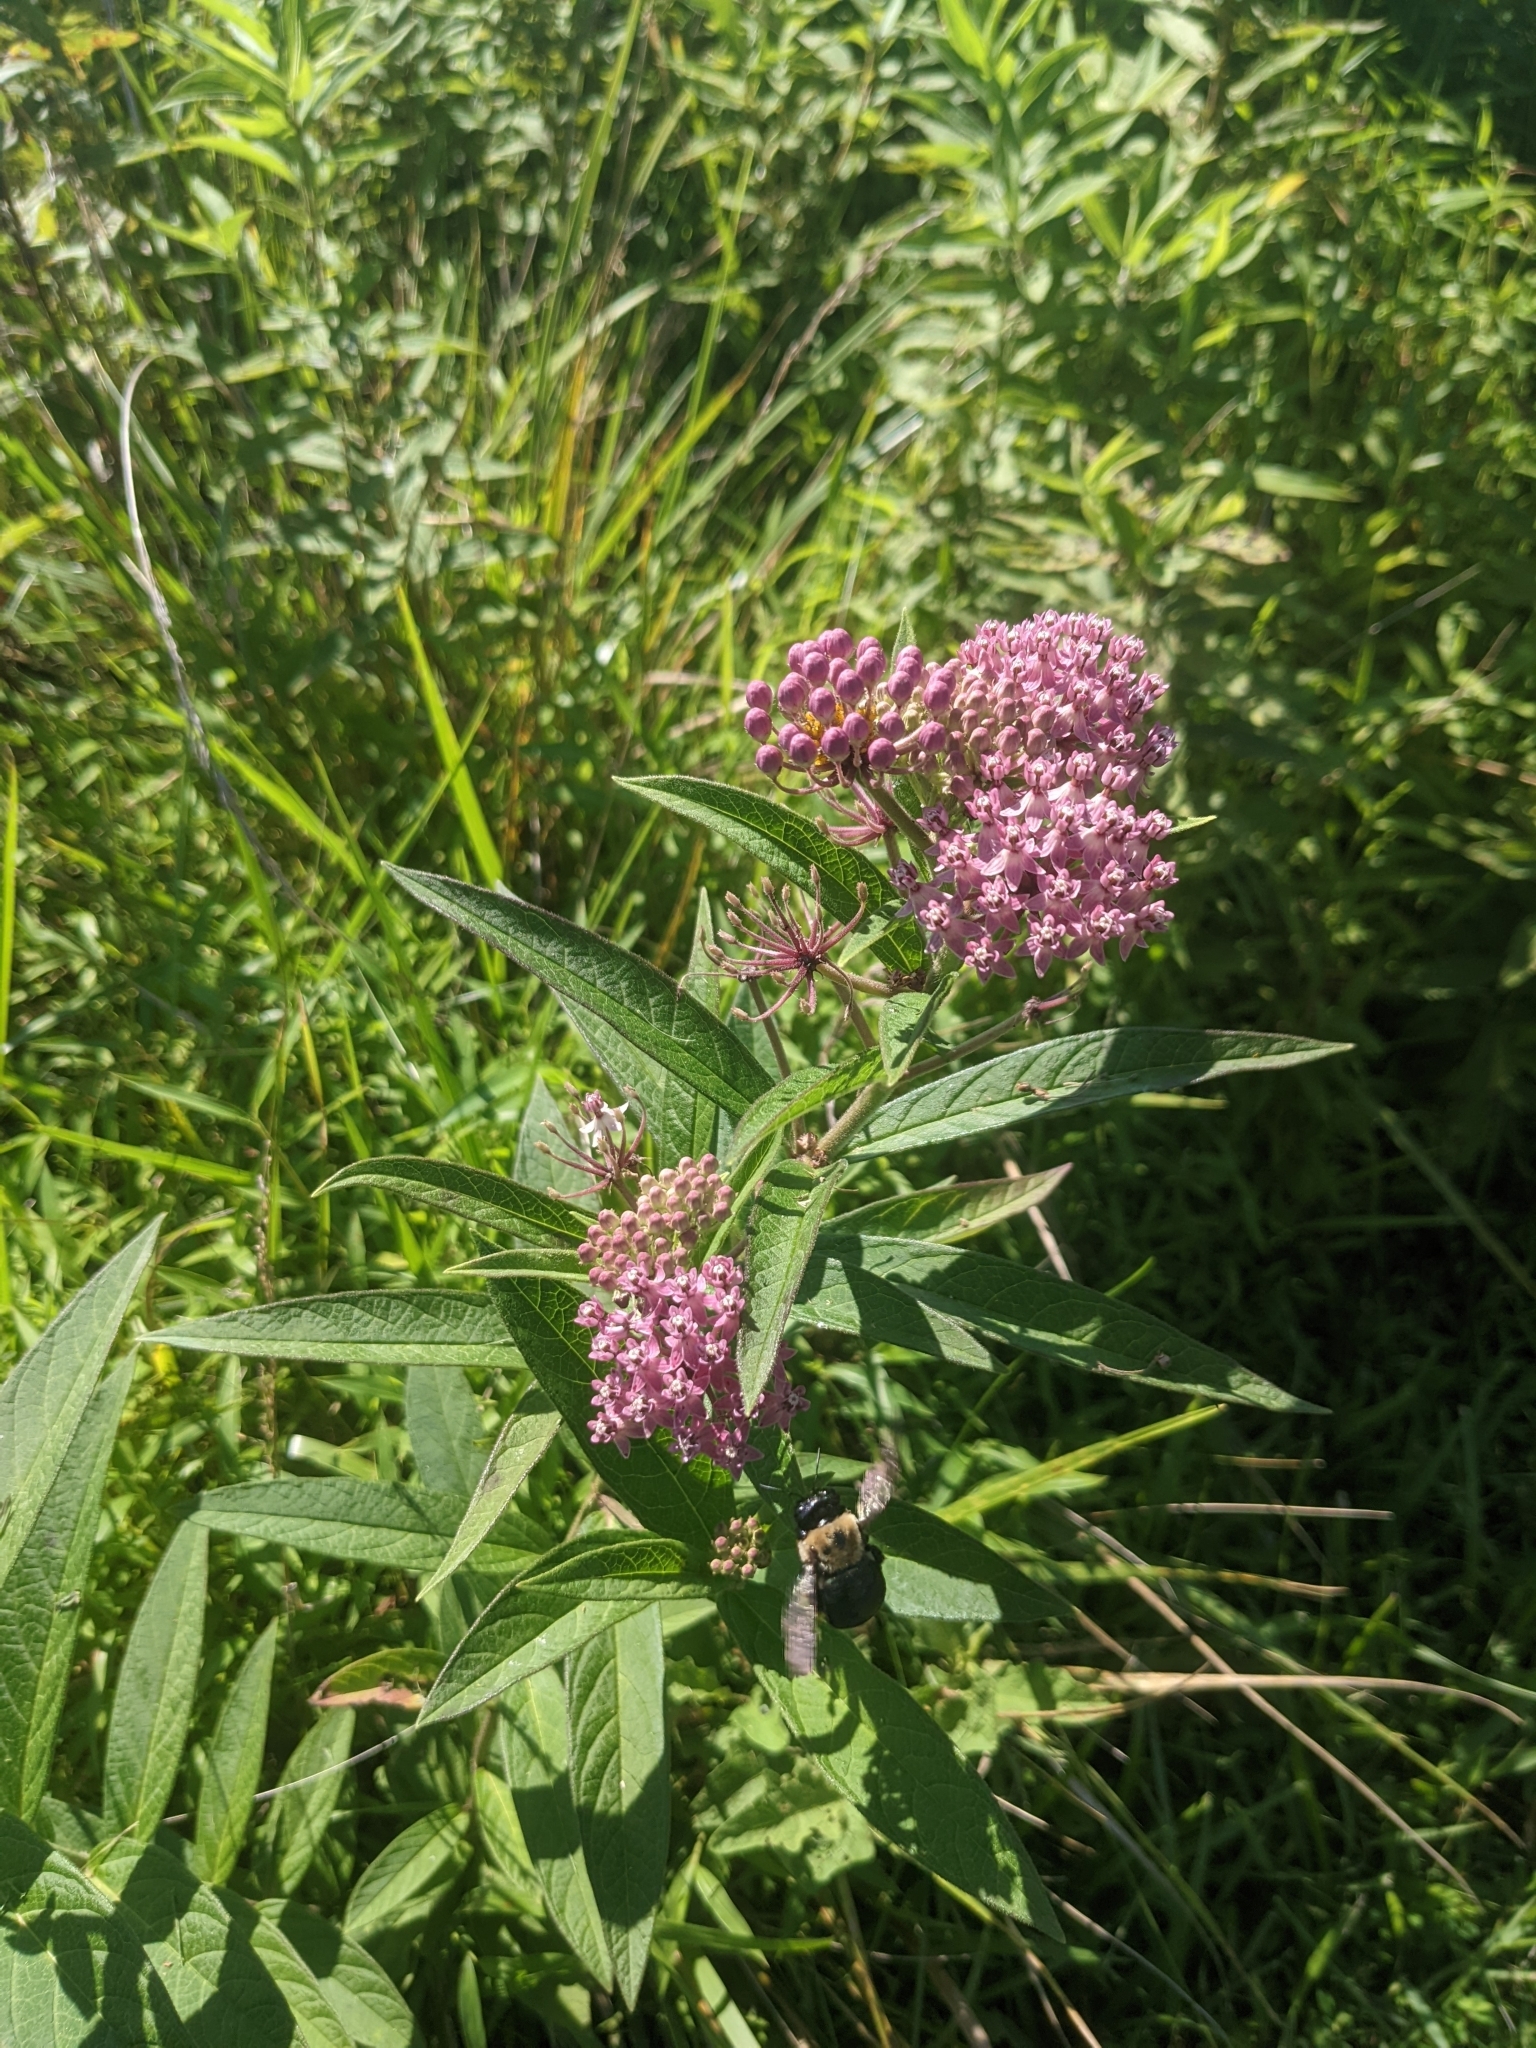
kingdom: Plantae
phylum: Tracheophyta
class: Magnoliopsida
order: Gentianales
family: Apocynaceae
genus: Asclepias
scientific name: Asclepias incarnata
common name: Swamp milkweed
